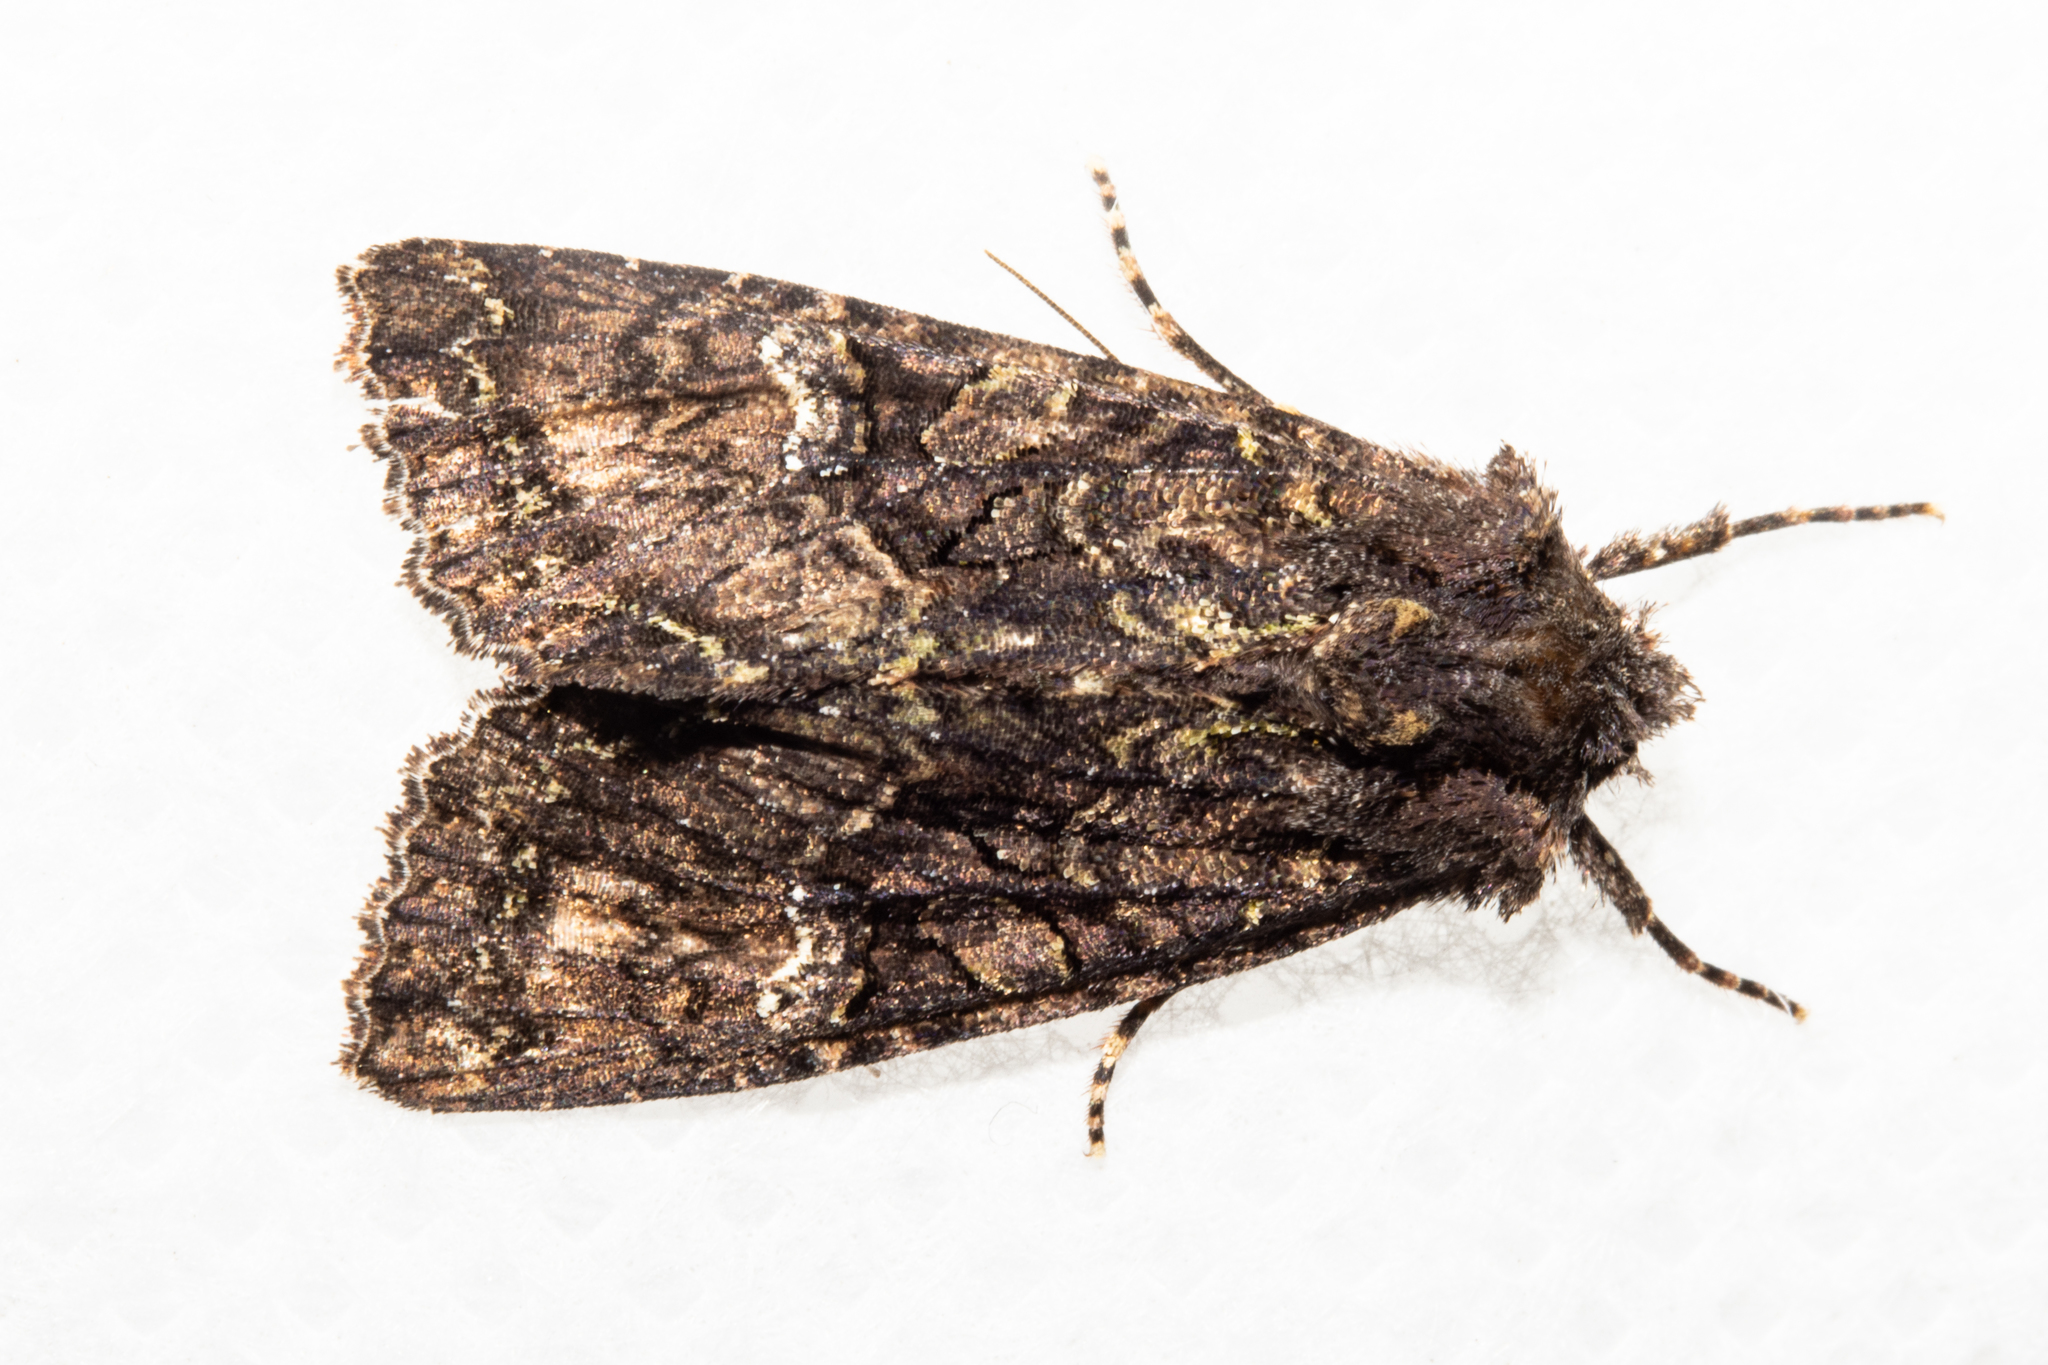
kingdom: Animalia
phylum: Arthropoda
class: Insecta
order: Lepidoptera
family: Noctuidae
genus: Meterana
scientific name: Meterana ochthistis
